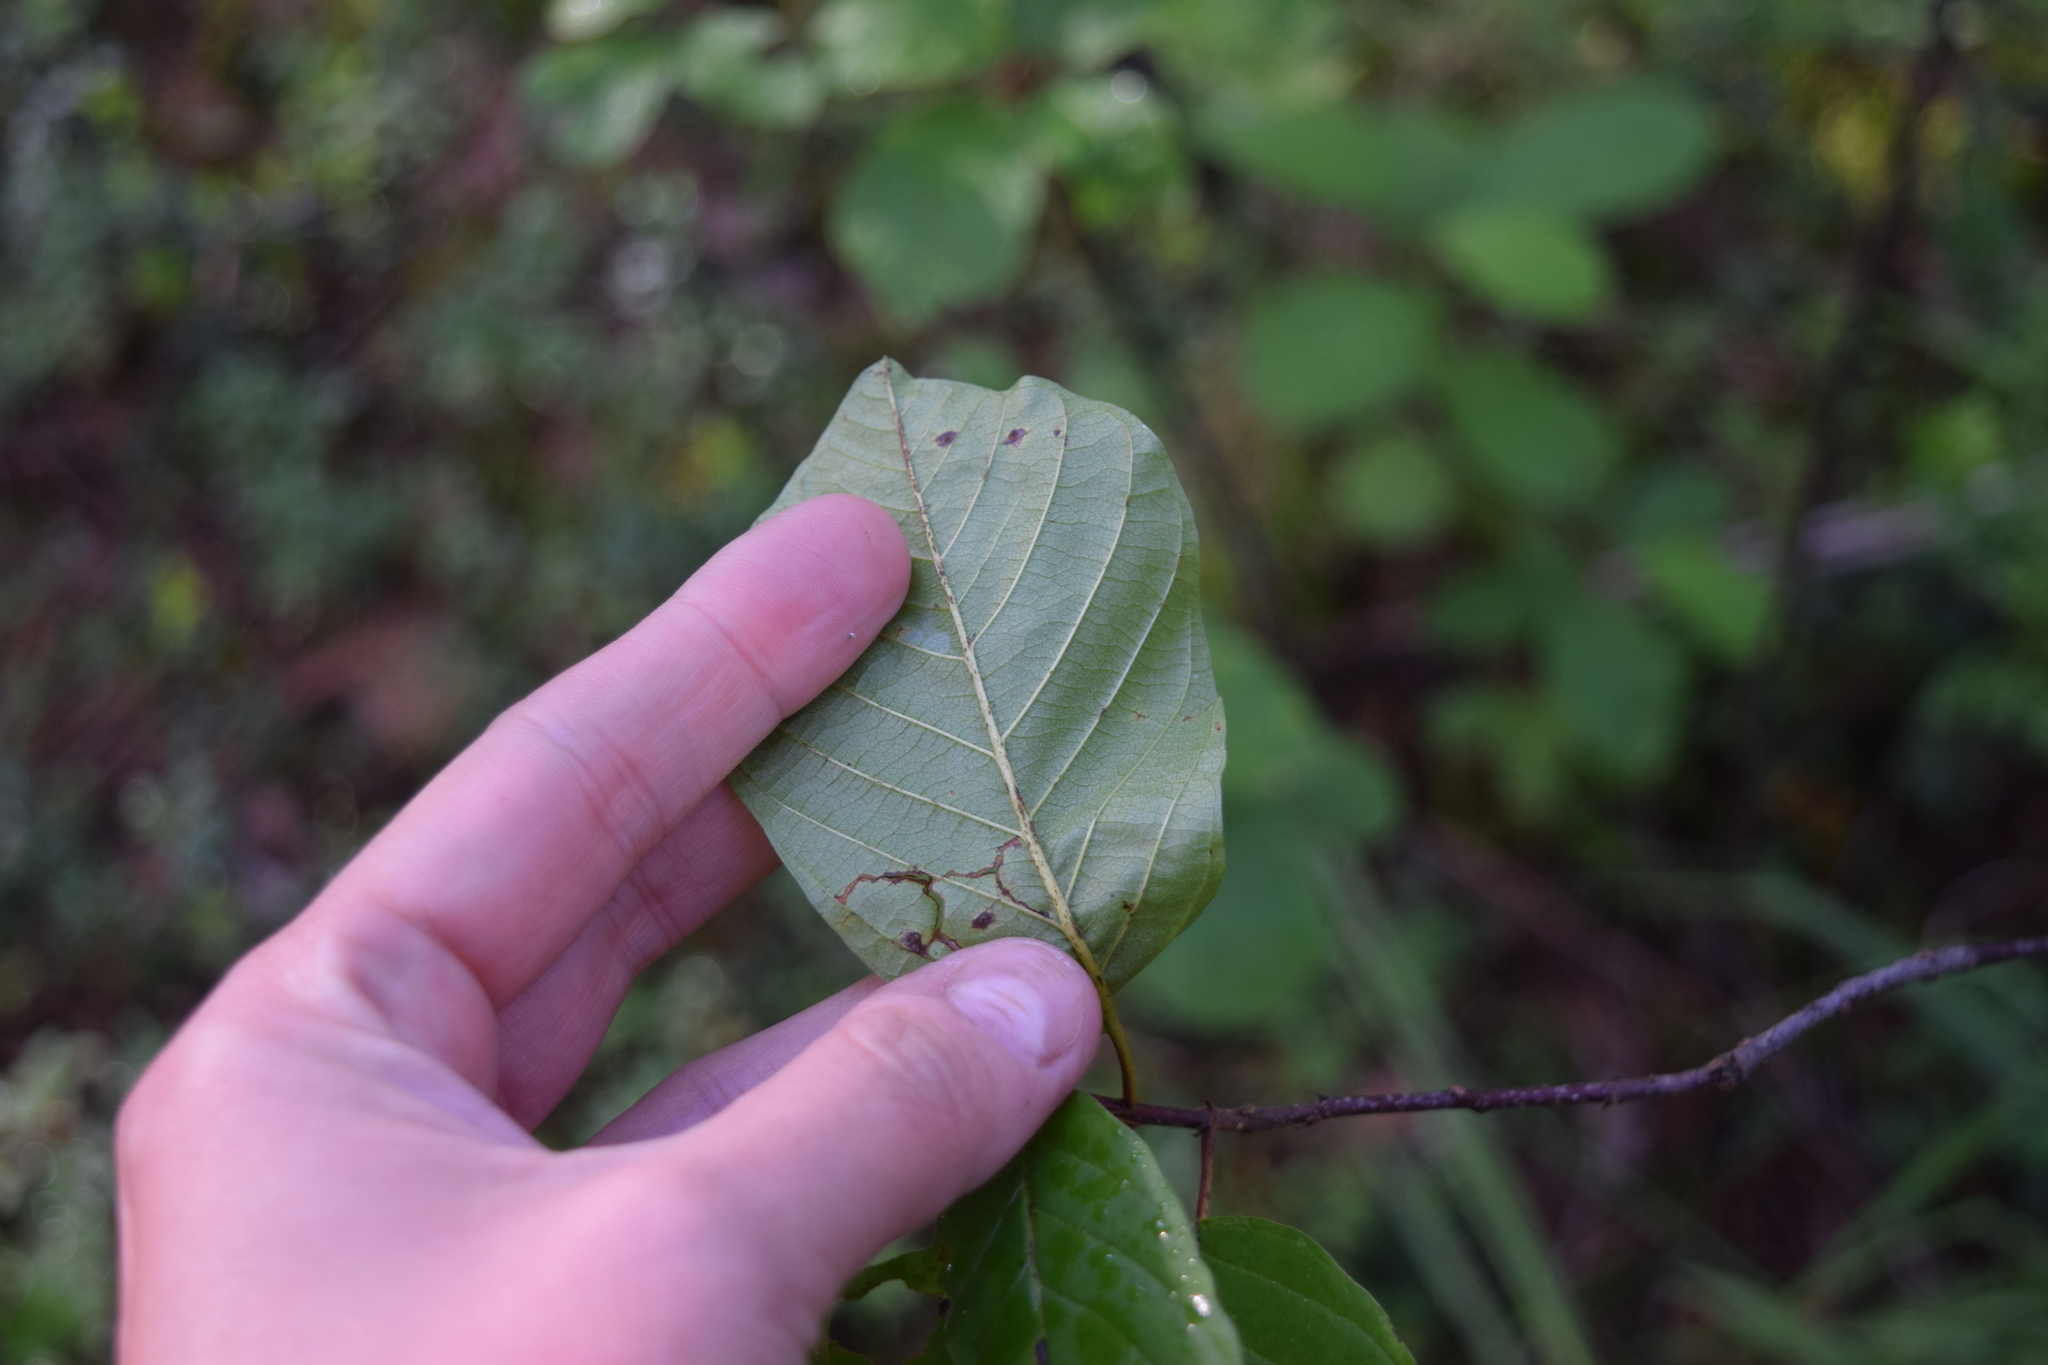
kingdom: Plantae
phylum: Tracheophyta
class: Magnoliopsida
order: Rosales
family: Rhamnaceae
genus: Frangula
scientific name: Frangula alnus
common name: Alder buckthorn
